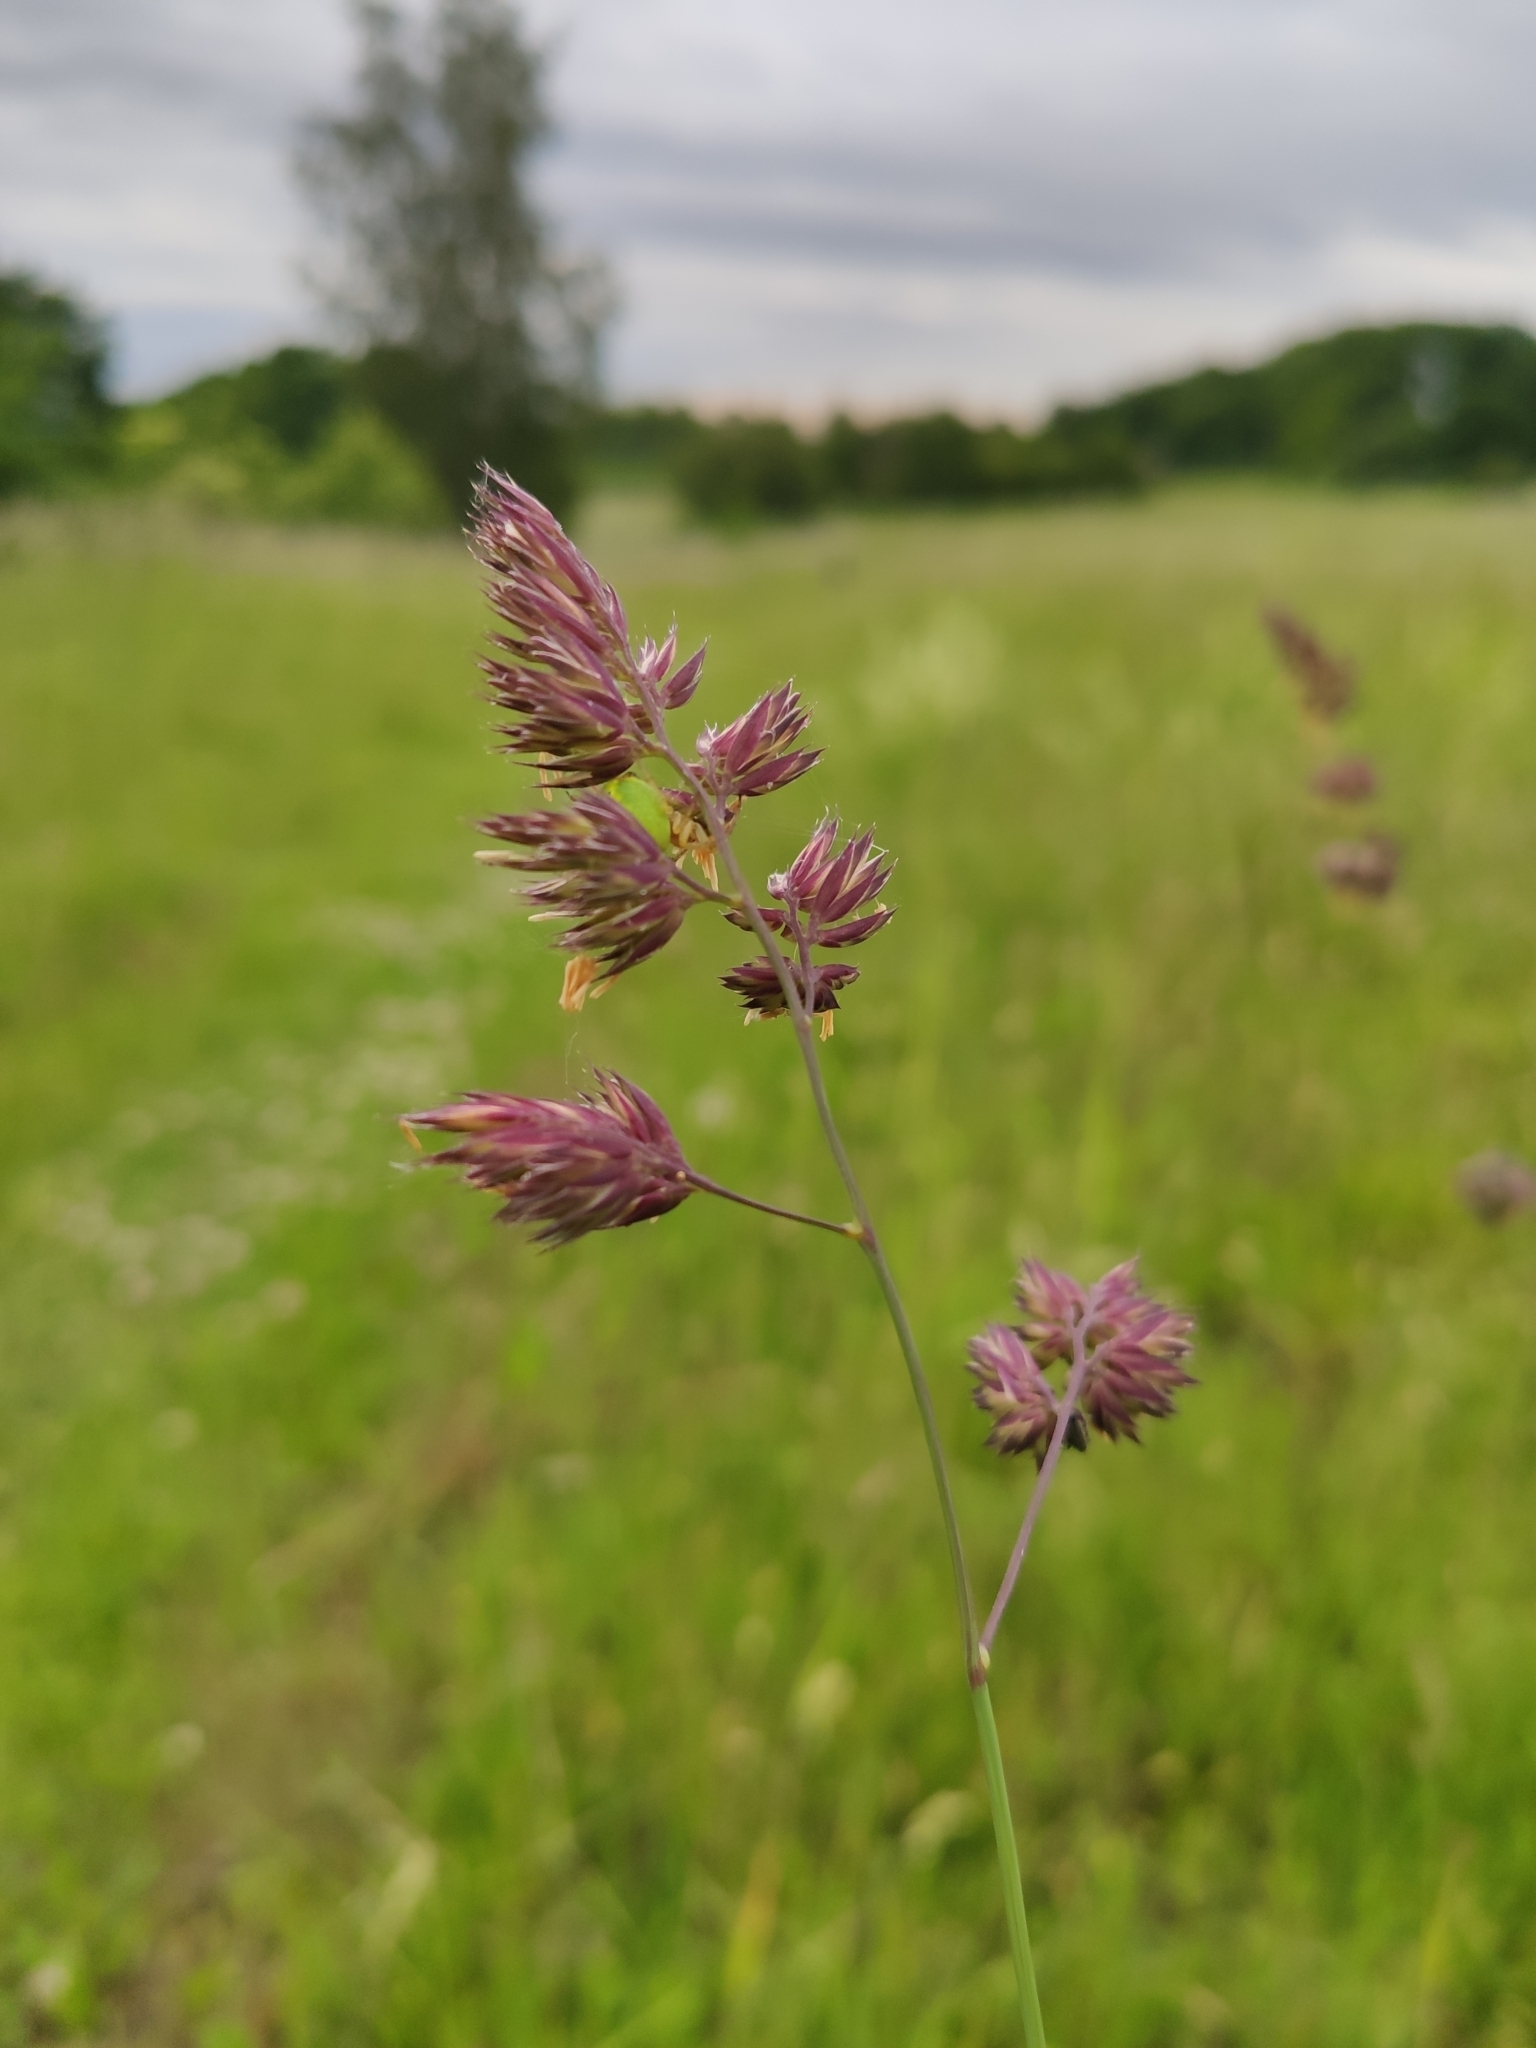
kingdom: Plantae
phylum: Tracheophyta
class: Liliopsida
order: Poales
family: Poaceae
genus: Dactylis
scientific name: Dactylis glomerata
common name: Orchardgrass
